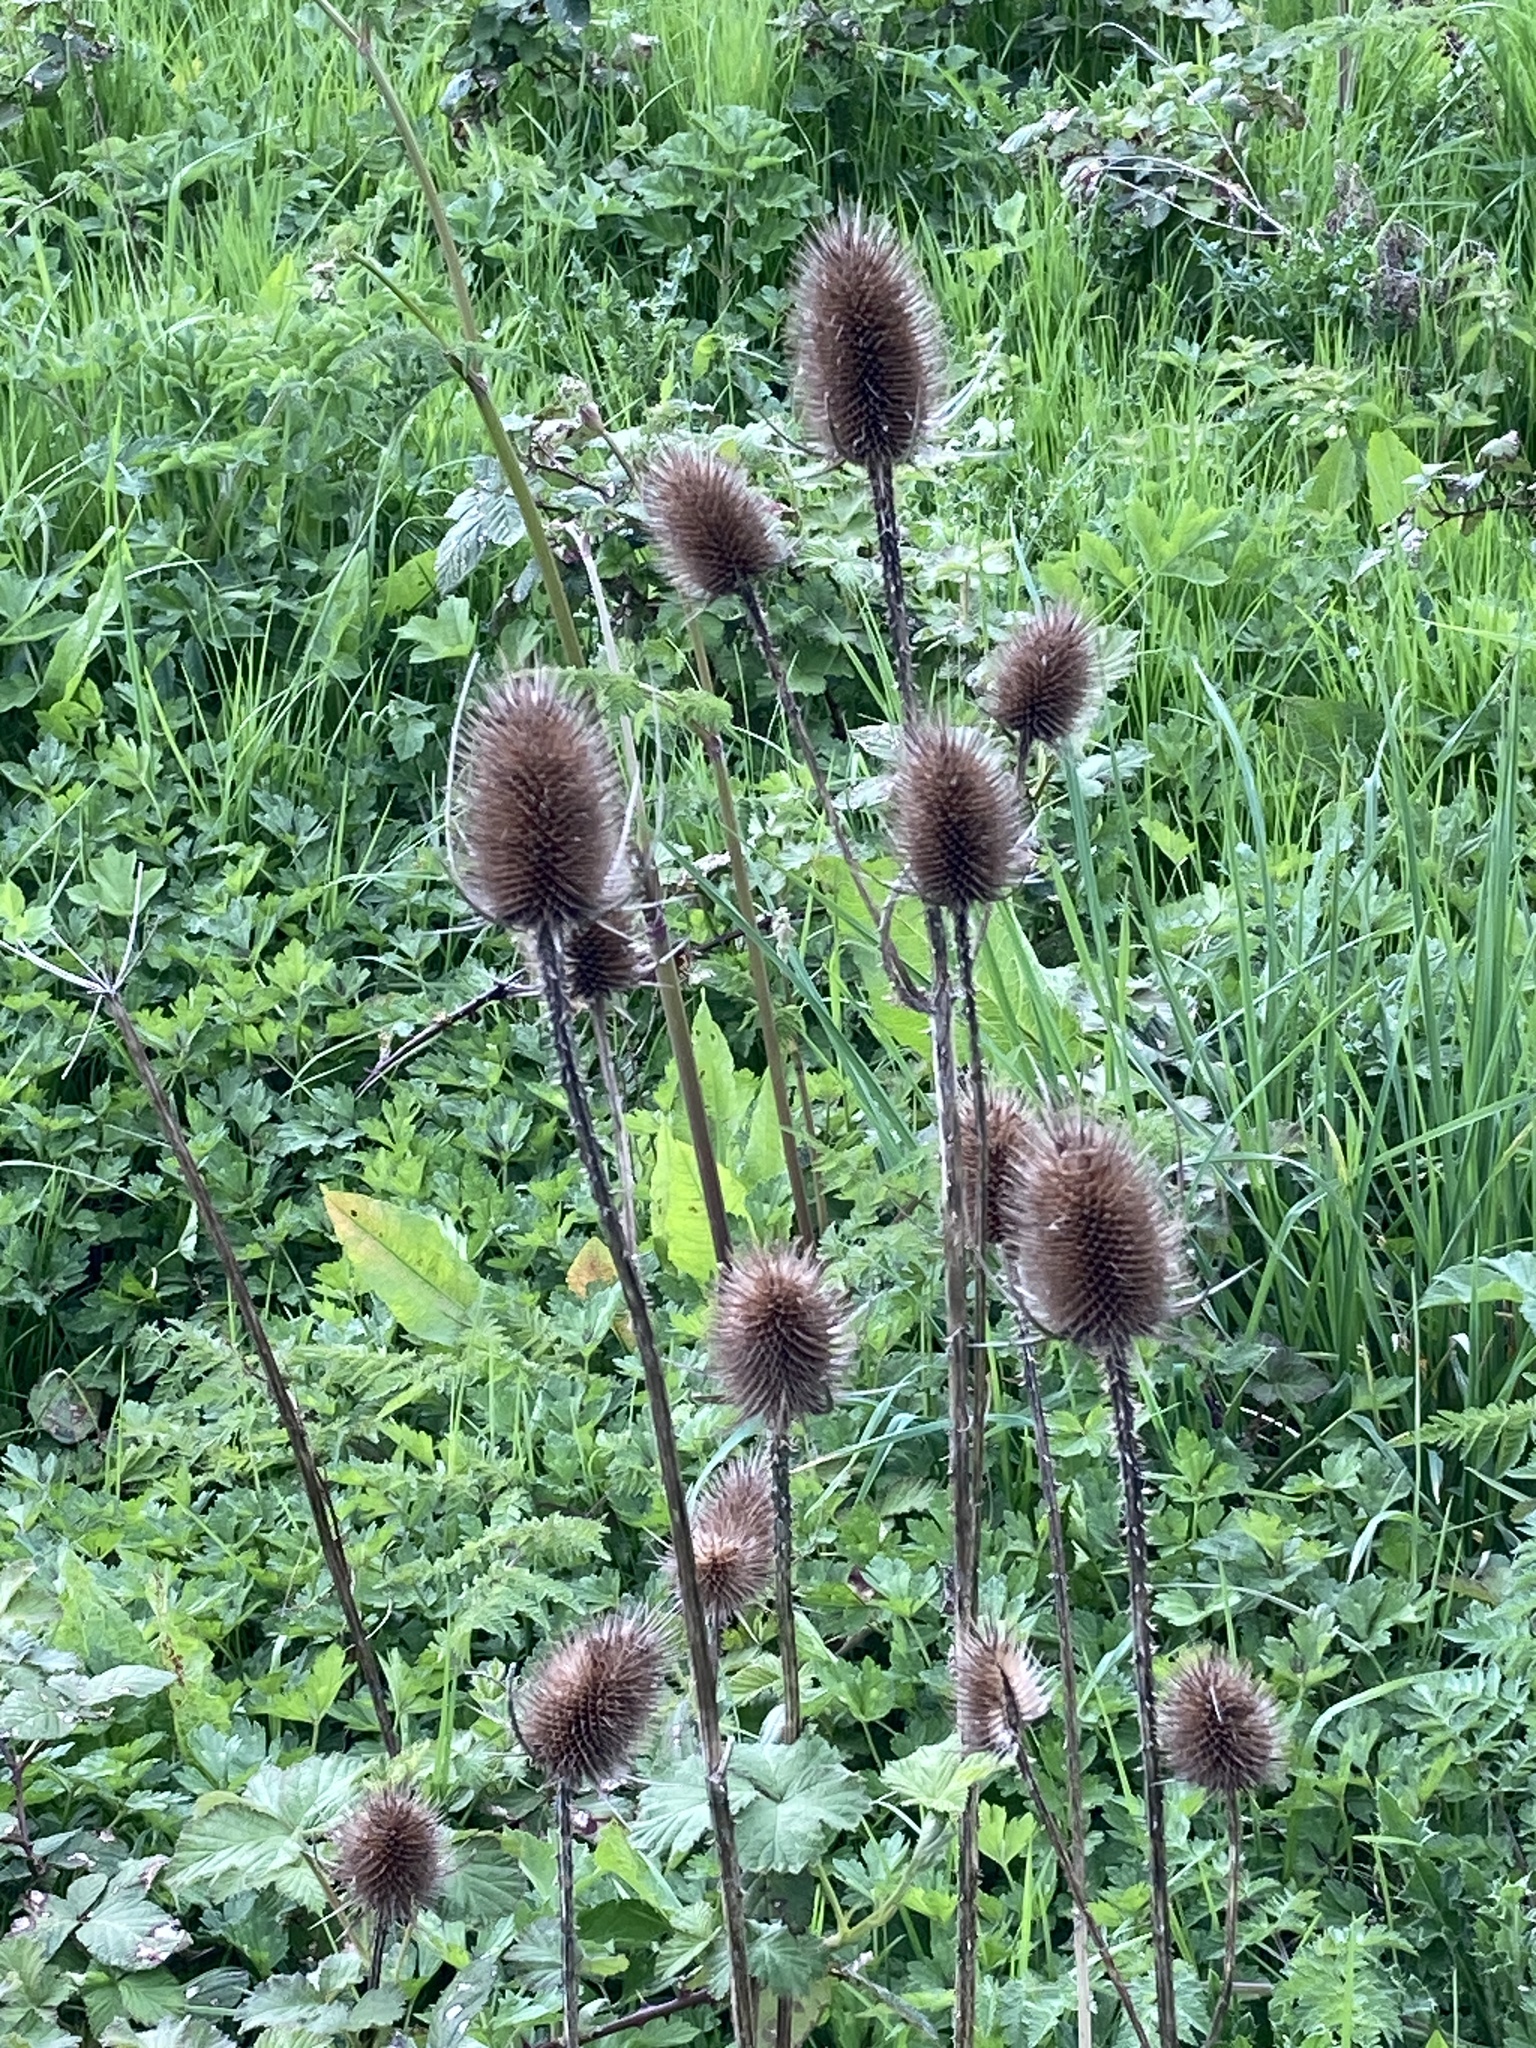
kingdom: Plantae
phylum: Tracheophyta
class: Magnoliopsida
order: Dipsacales
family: Caprifoliaceae
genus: Dipsacus
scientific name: Dipsacus fullonum
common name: Teasel
